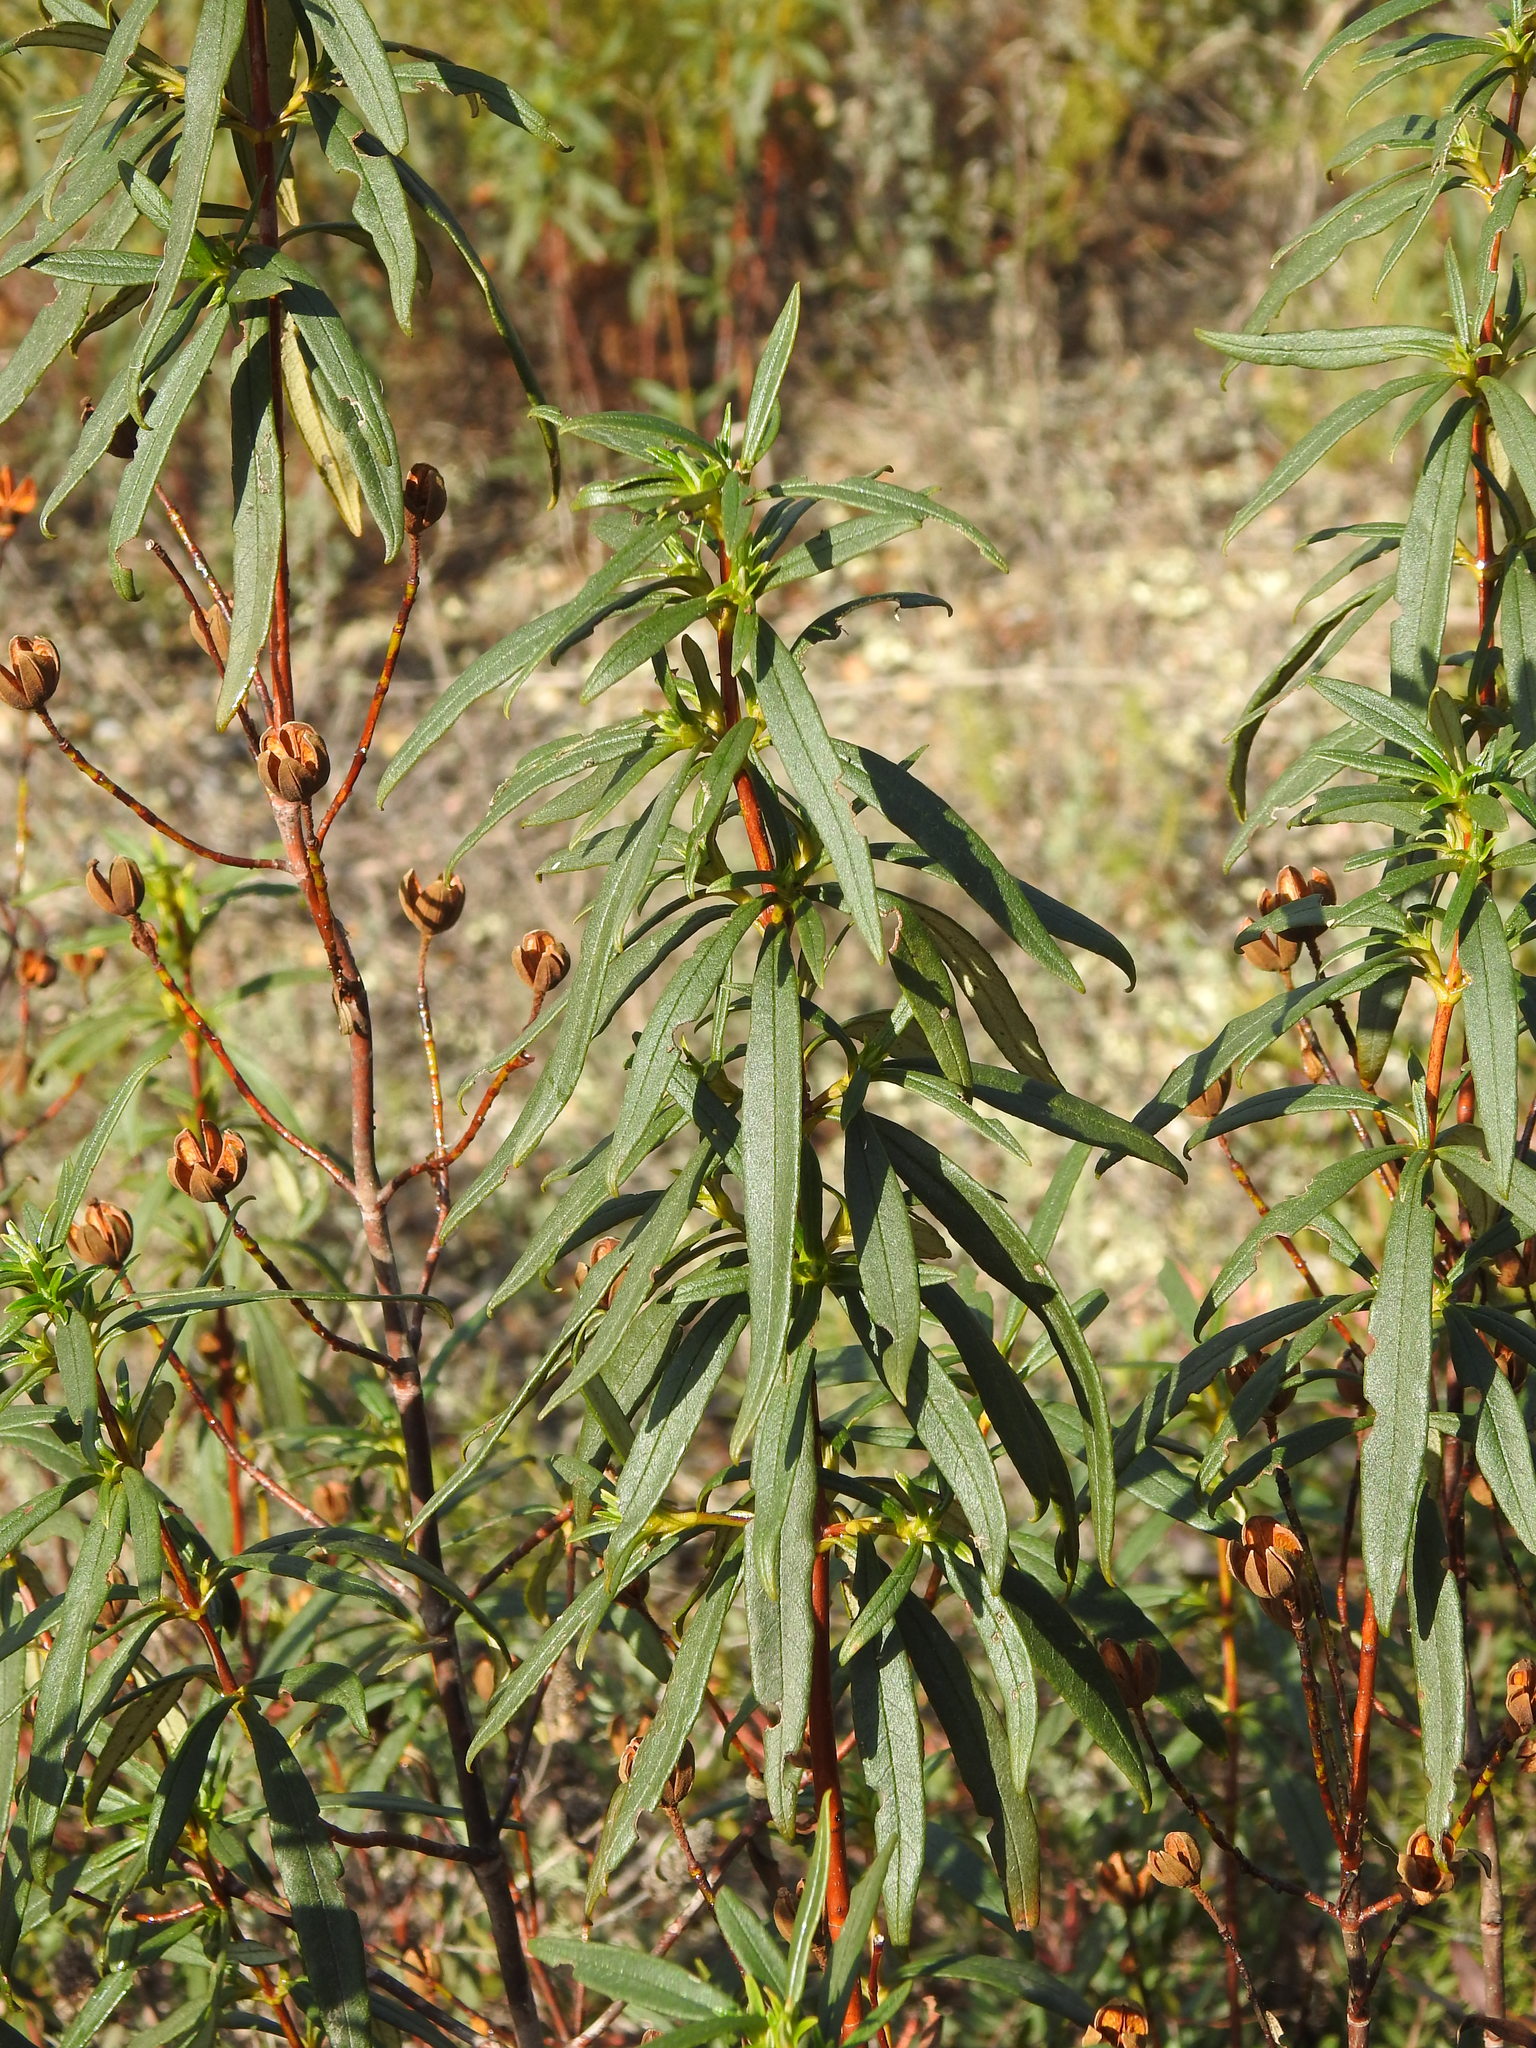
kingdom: Plantae
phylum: Tracheophyta
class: Magnoliopsida
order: Malvales
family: Cistaceae
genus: Cistus
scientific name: Cistus ladanifer
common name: Common gum cistus
